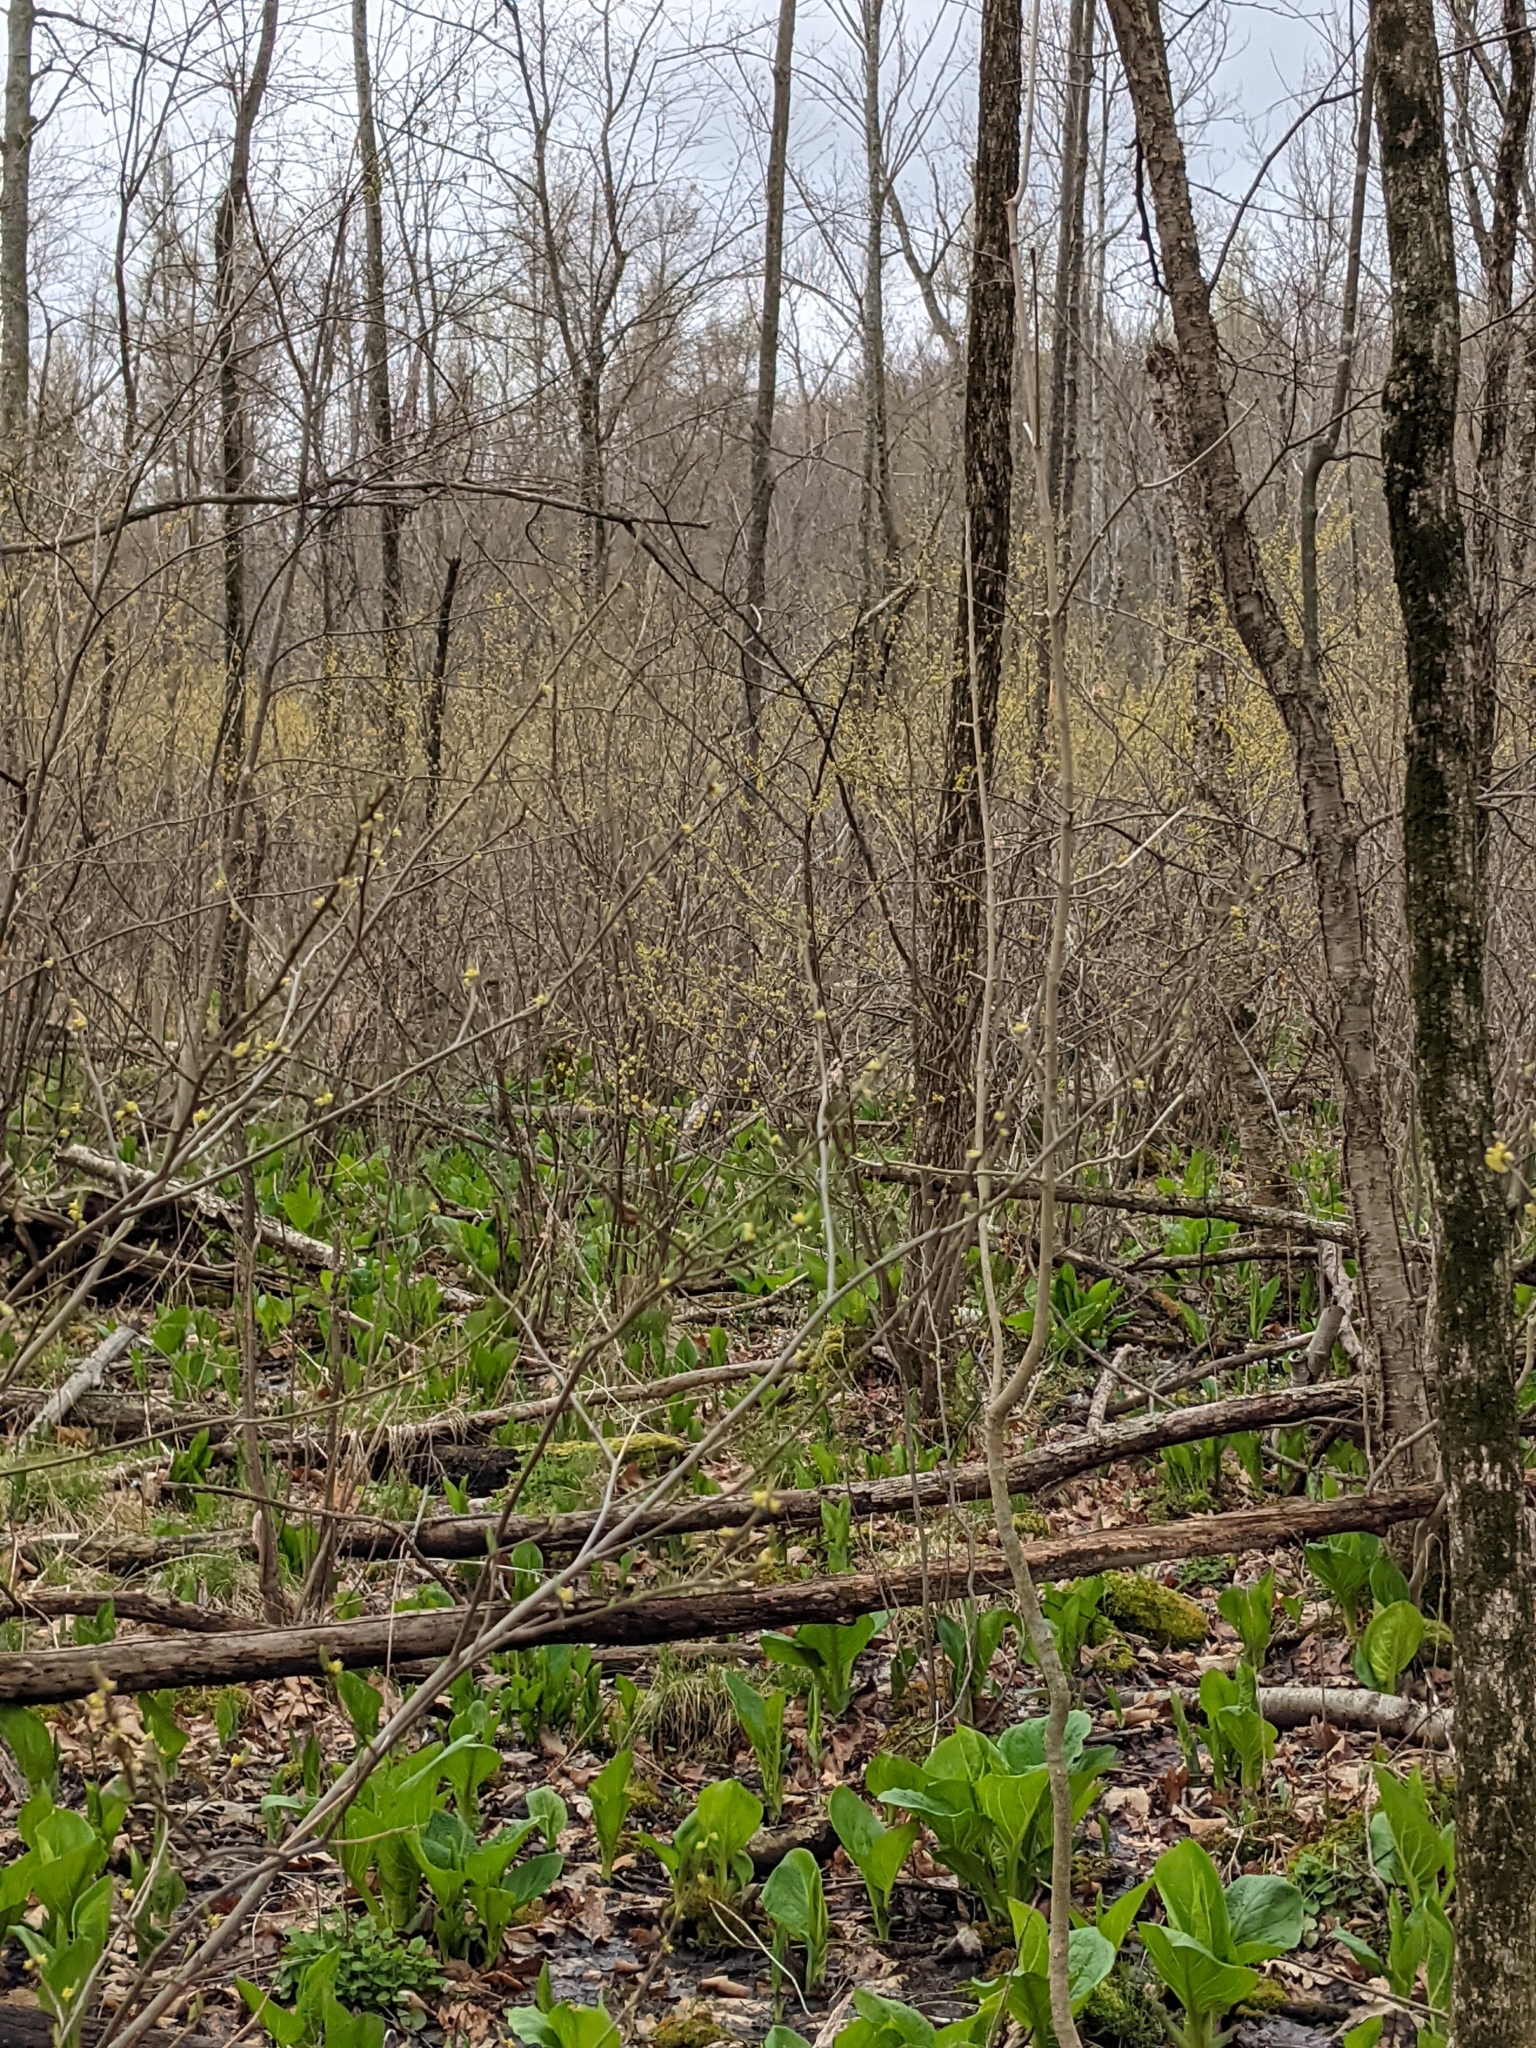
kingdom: Plantae
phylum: Tracheophyta
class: Magnoliopsida
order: Laurales
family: Lauraceae
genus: Lindera
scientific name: Lindera benzoin
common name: Spicebush
